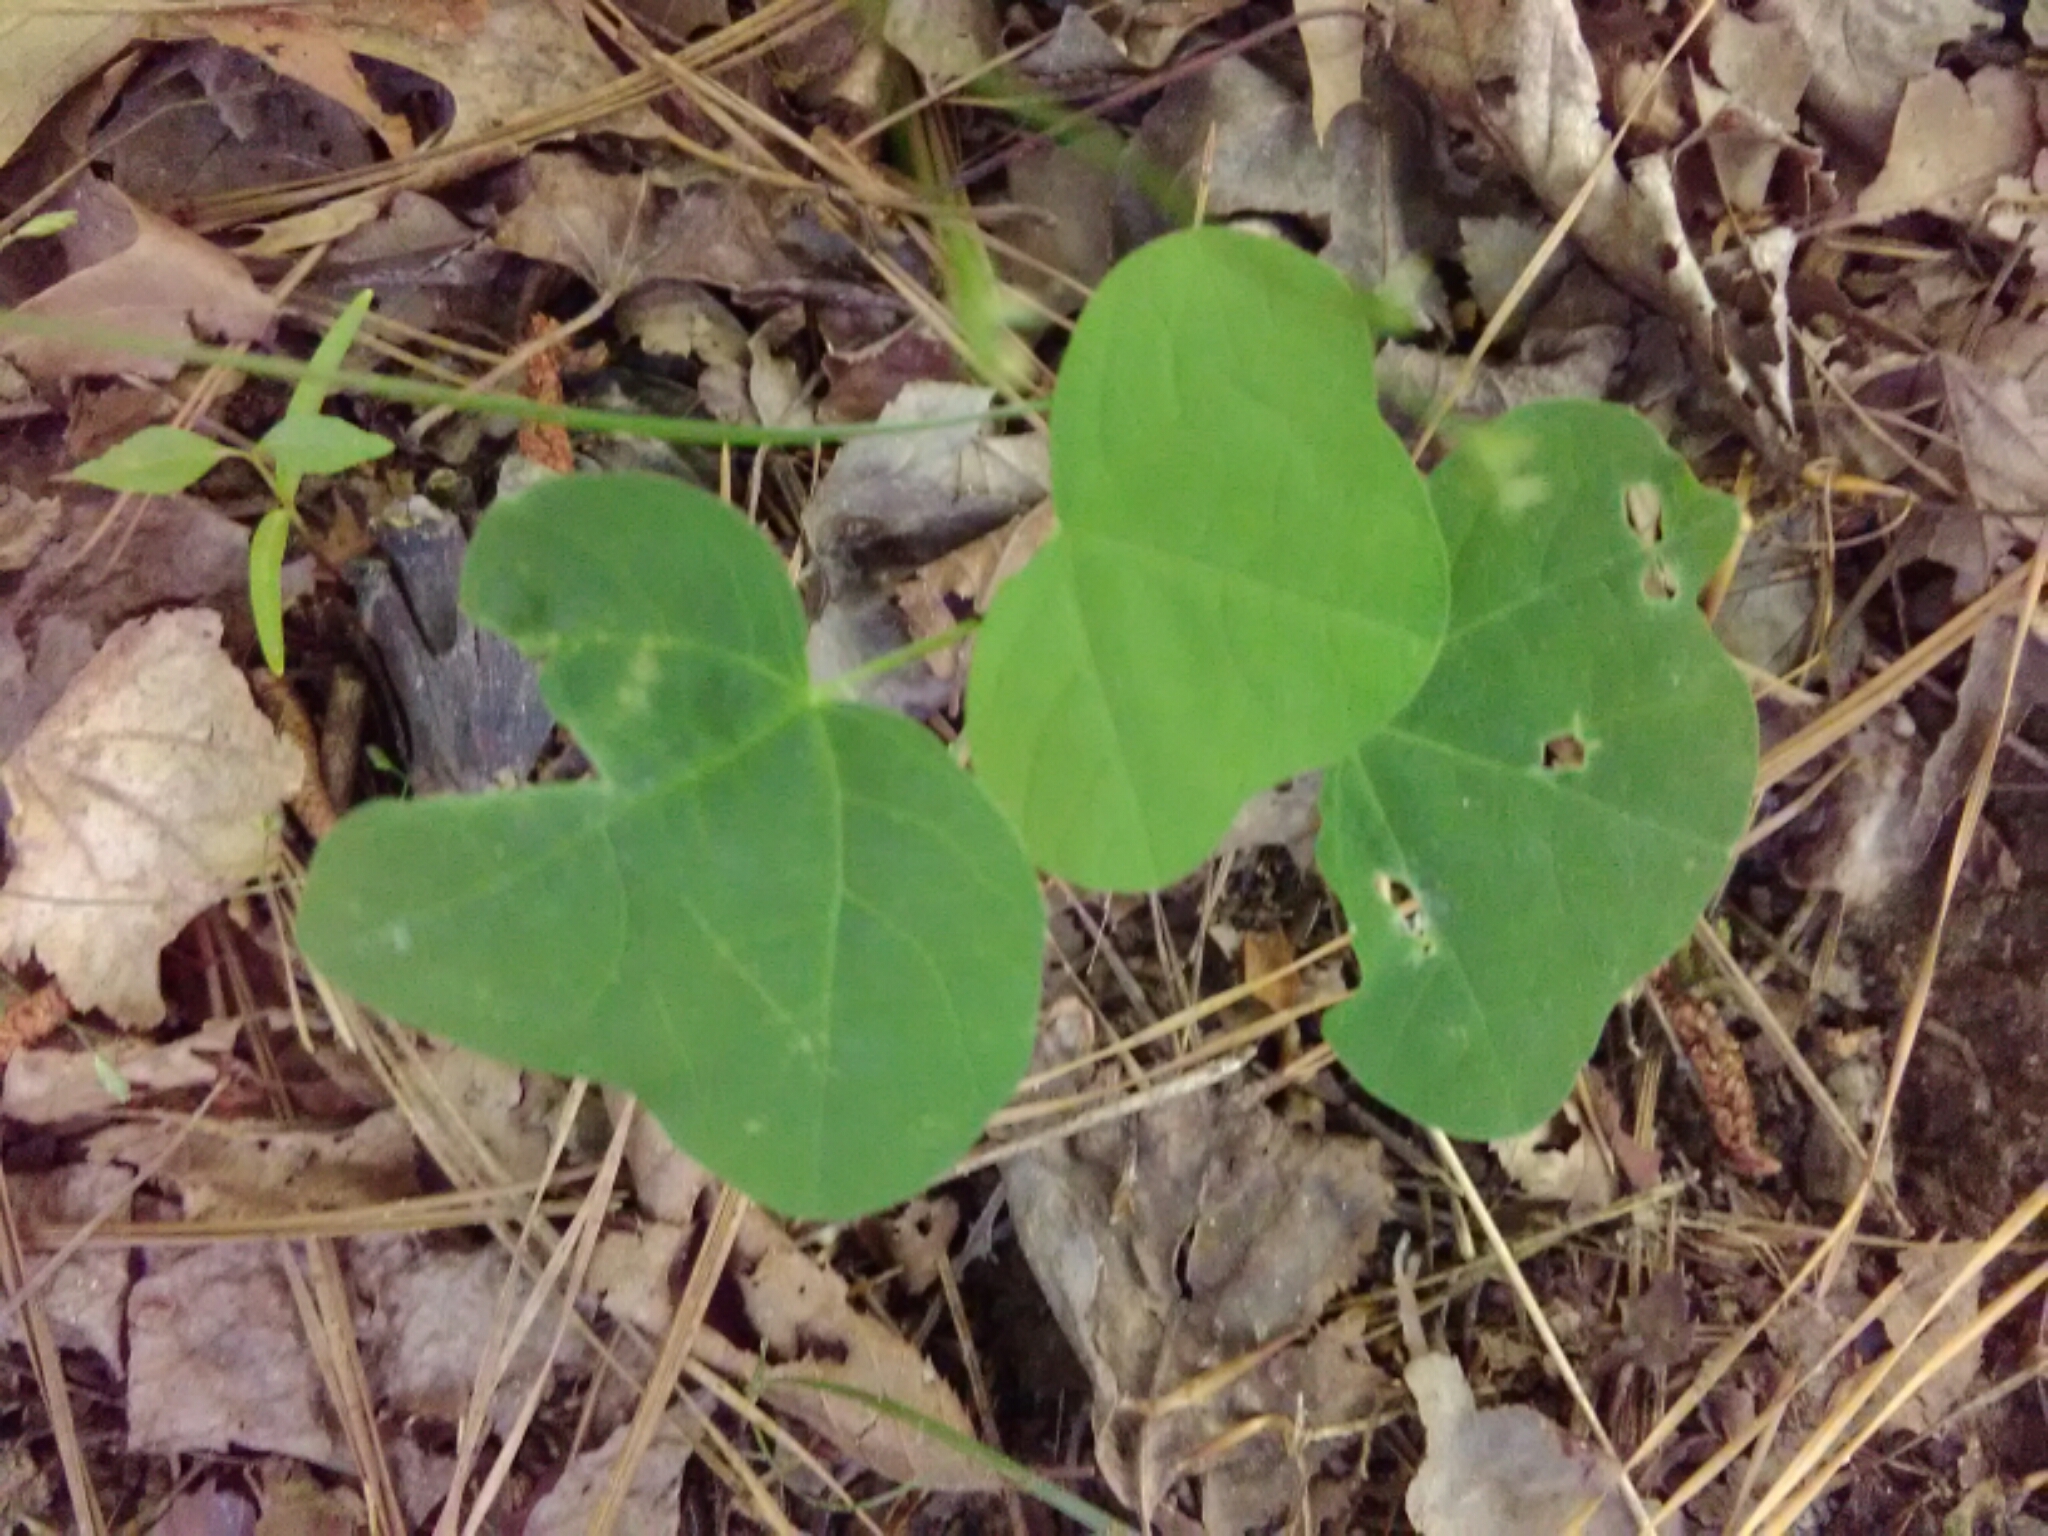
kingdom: Plantae
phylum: Tracheophyta
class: Magnoliopsida
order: Malpighiales
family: Passifloraceae
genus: Passiflora
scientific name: Passiflora lutea
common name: Yellow passionflower
